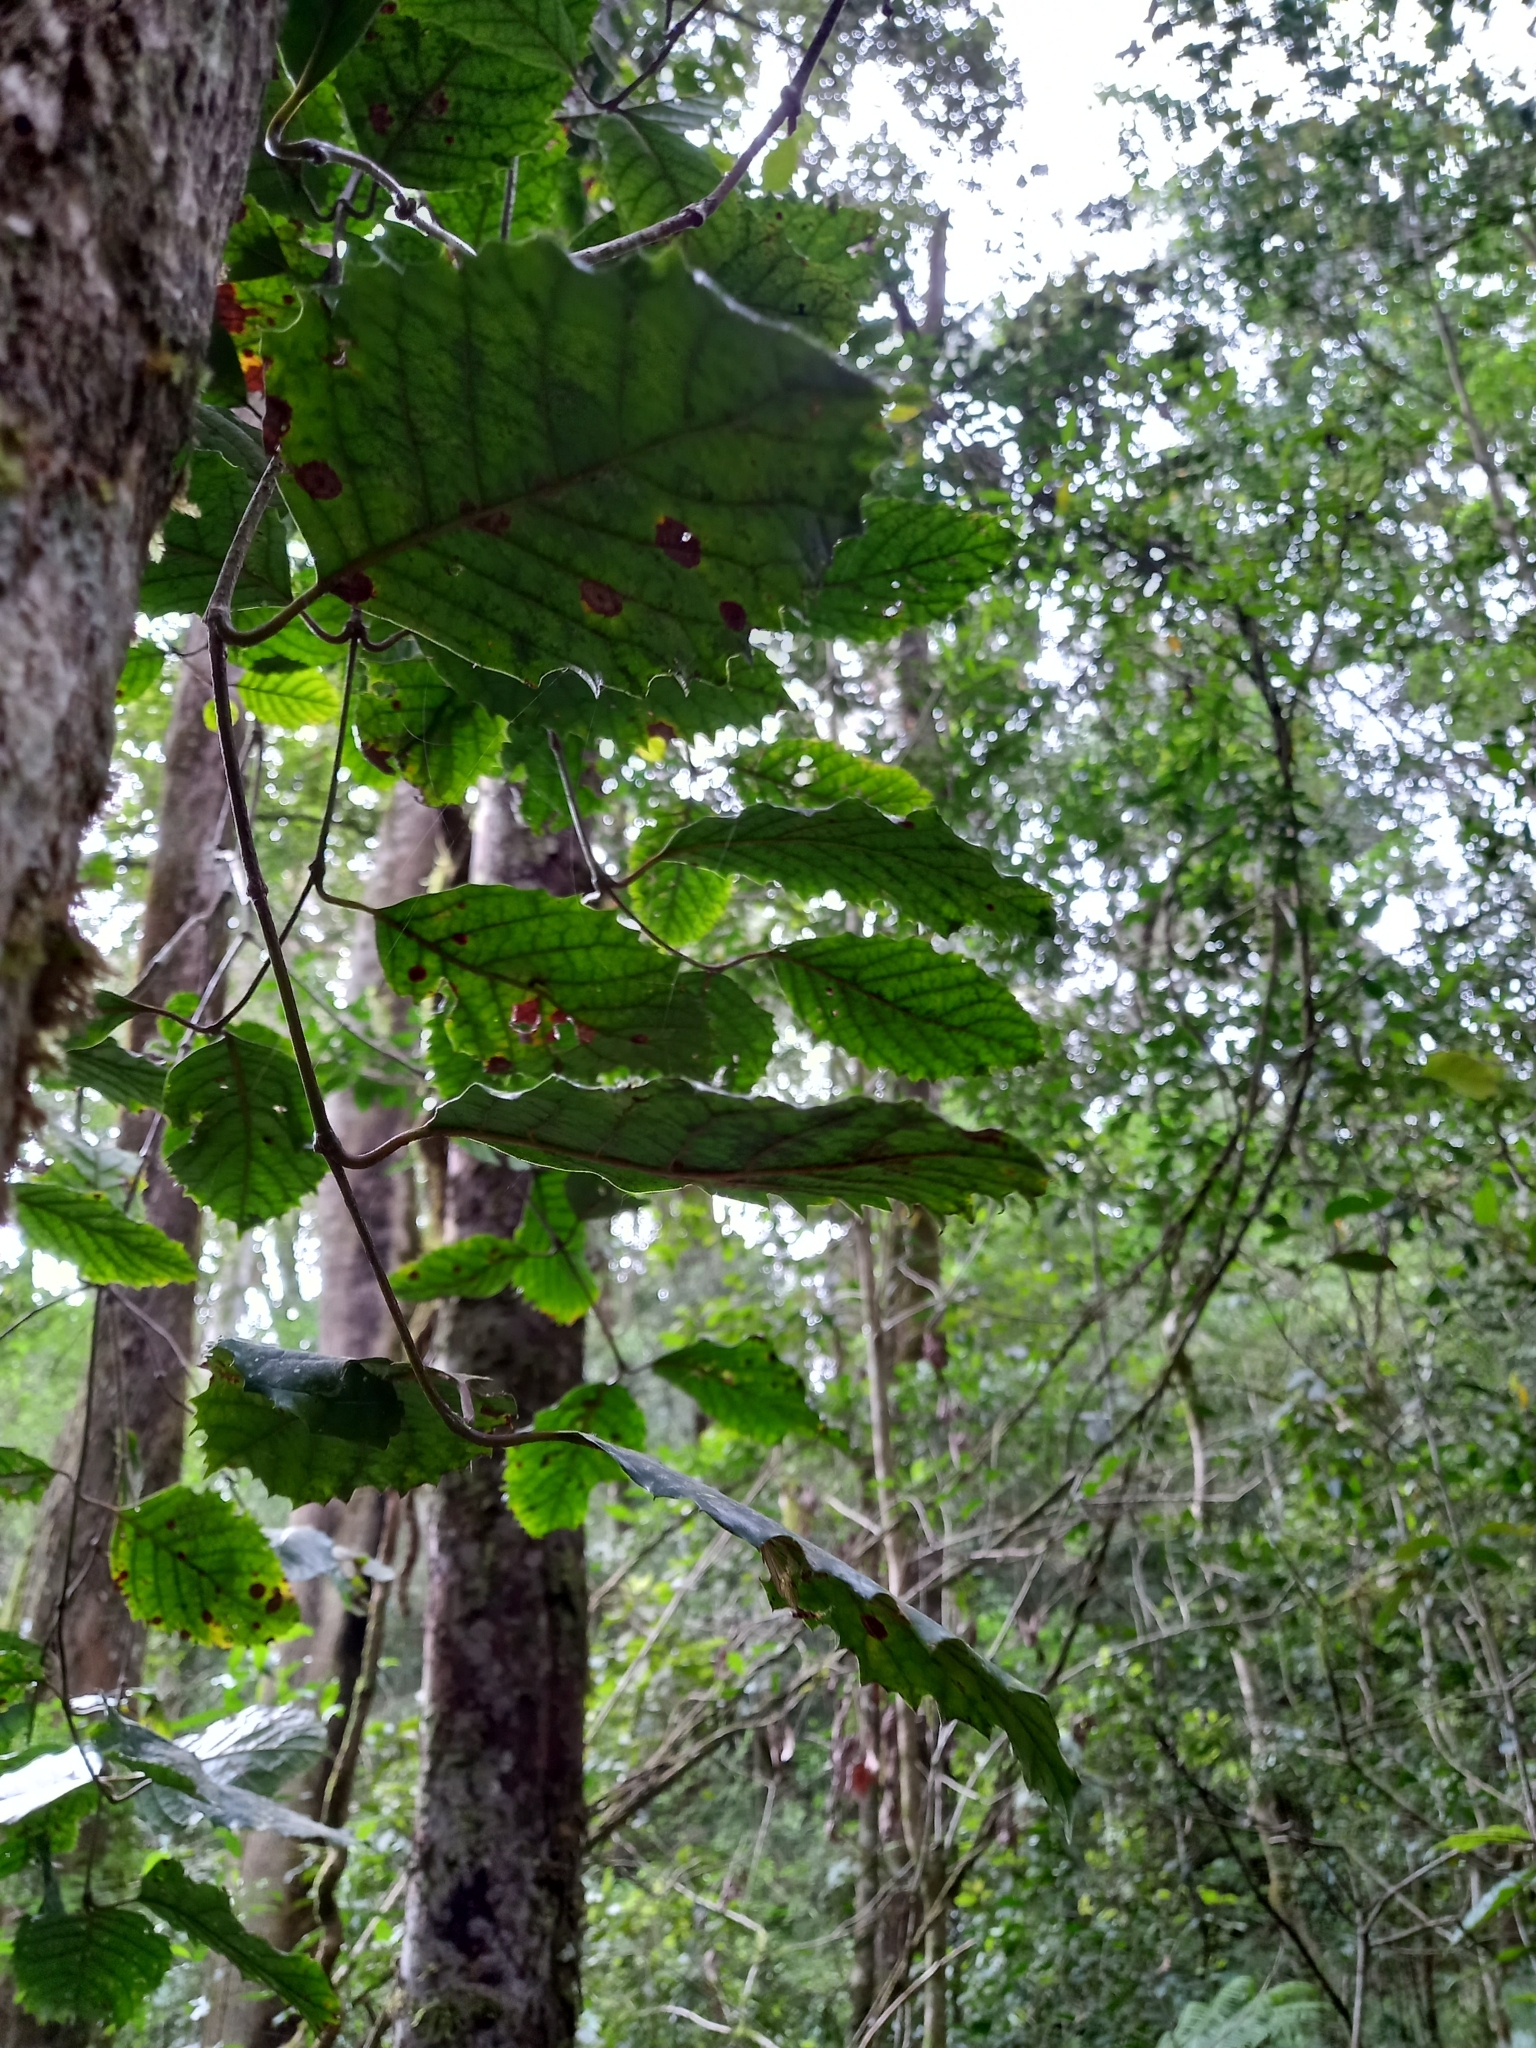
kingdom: Plantae
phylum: Tracheophyta
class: Magnoliopsida
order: Cornales
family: Curtisiaceae
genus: Curtisia
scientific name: Curtisia dentata
